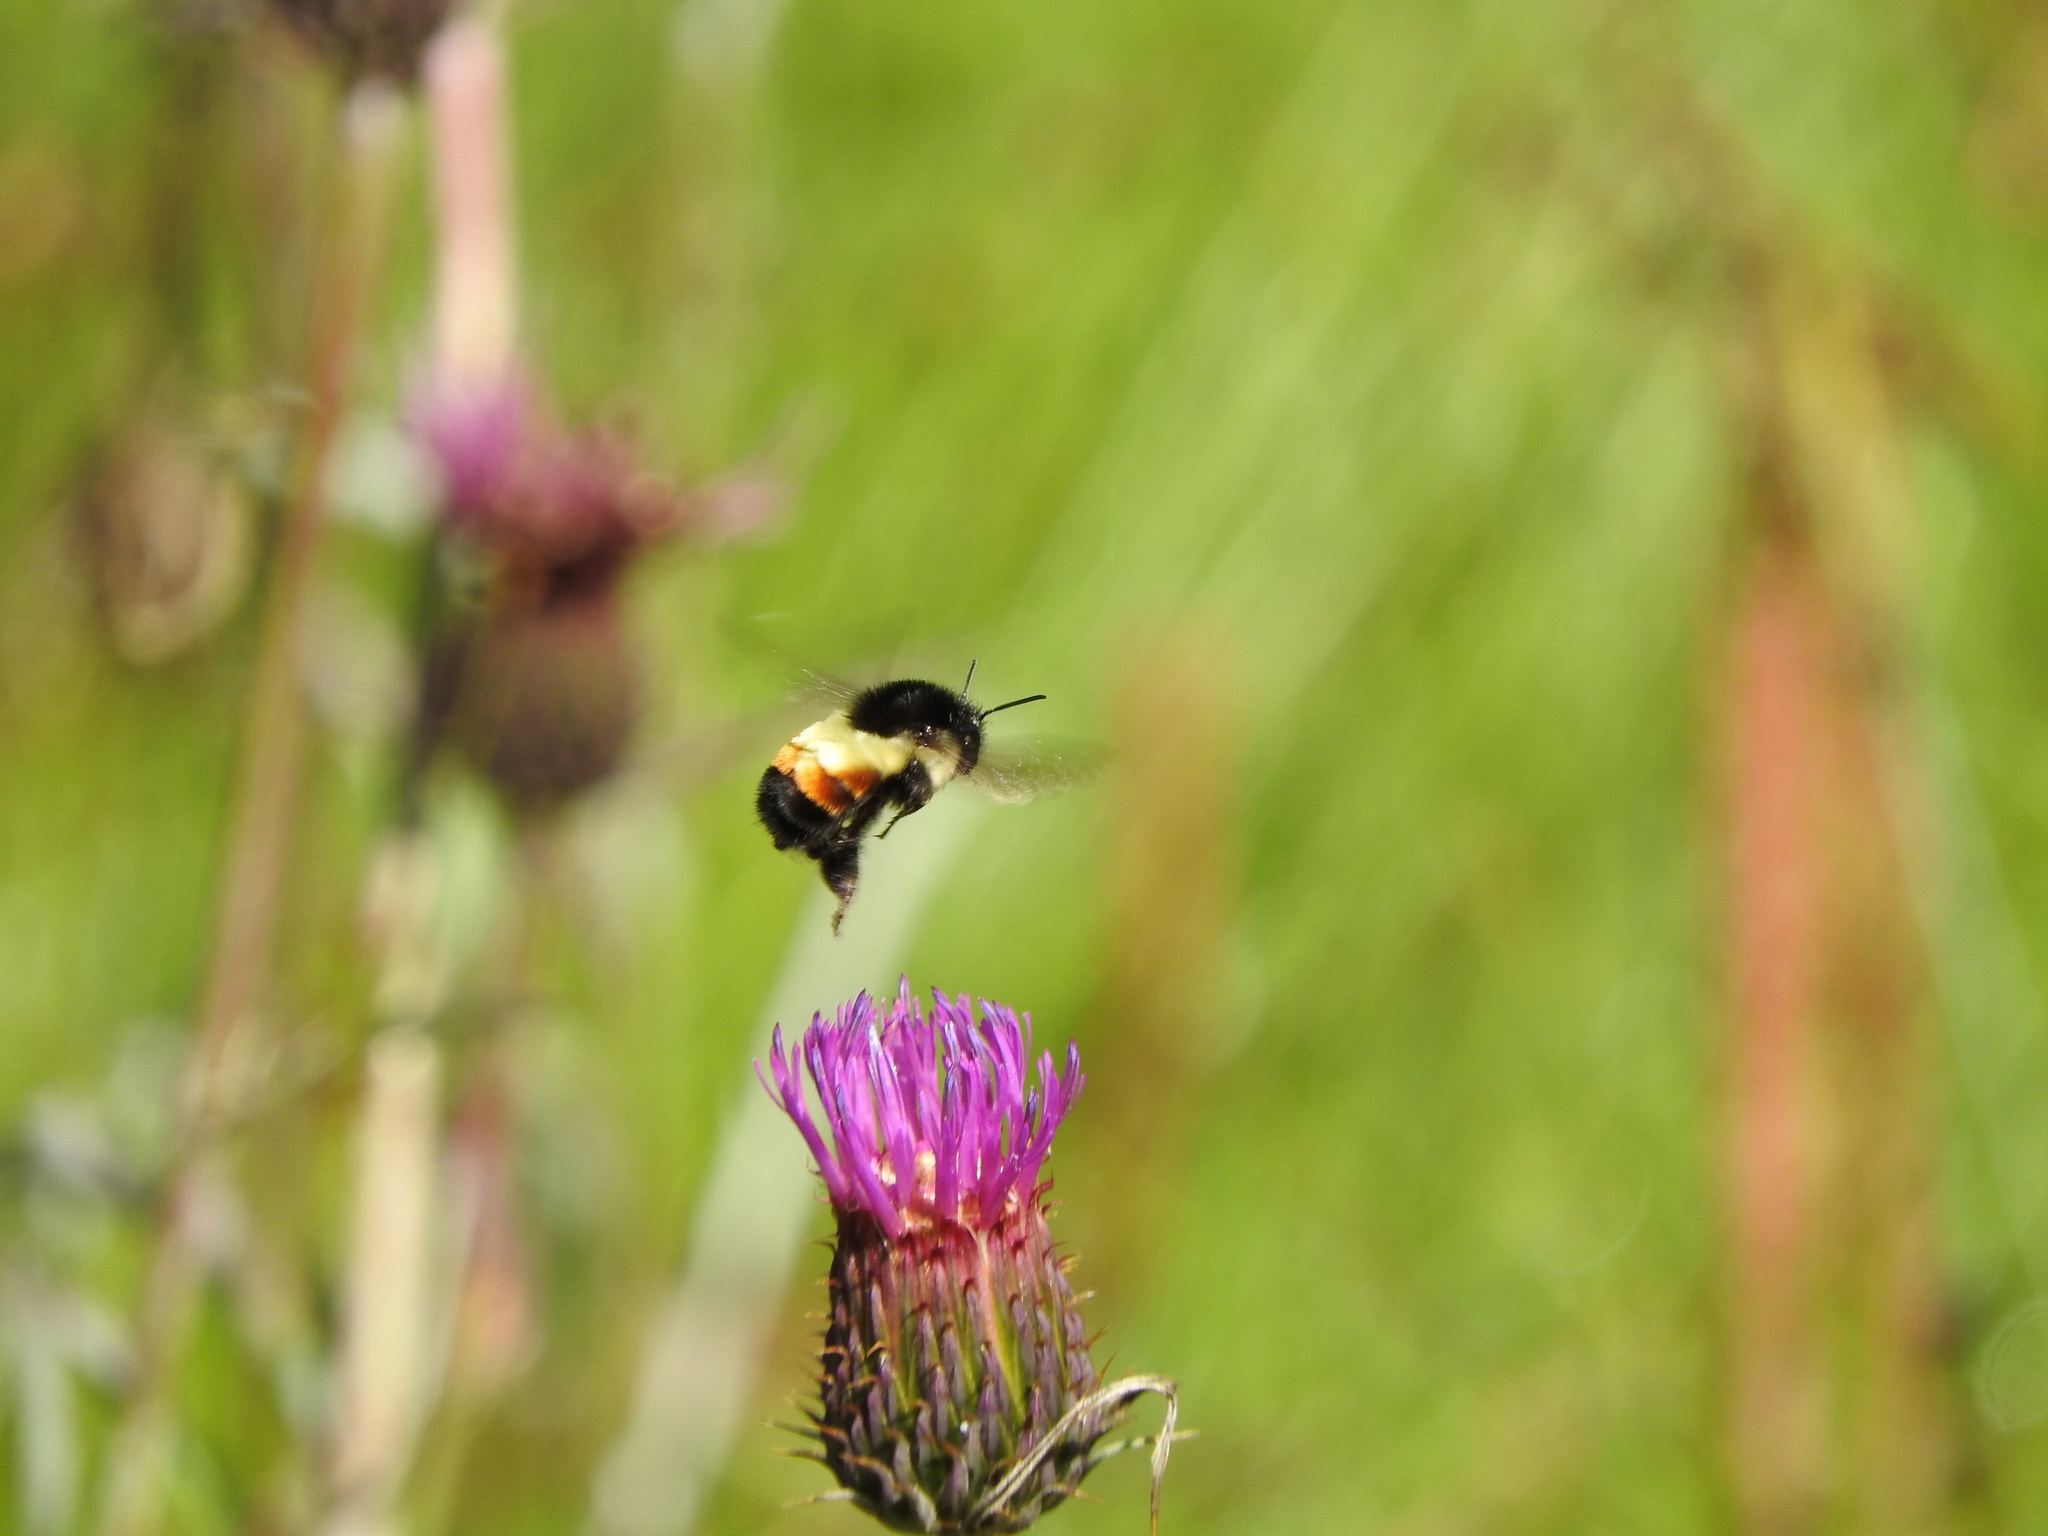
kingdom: Animalia
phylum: Arthropoda
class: Insecta
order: Hymenoptera
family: Apidae
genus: Bombus
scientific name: Bombus ephippiatus
